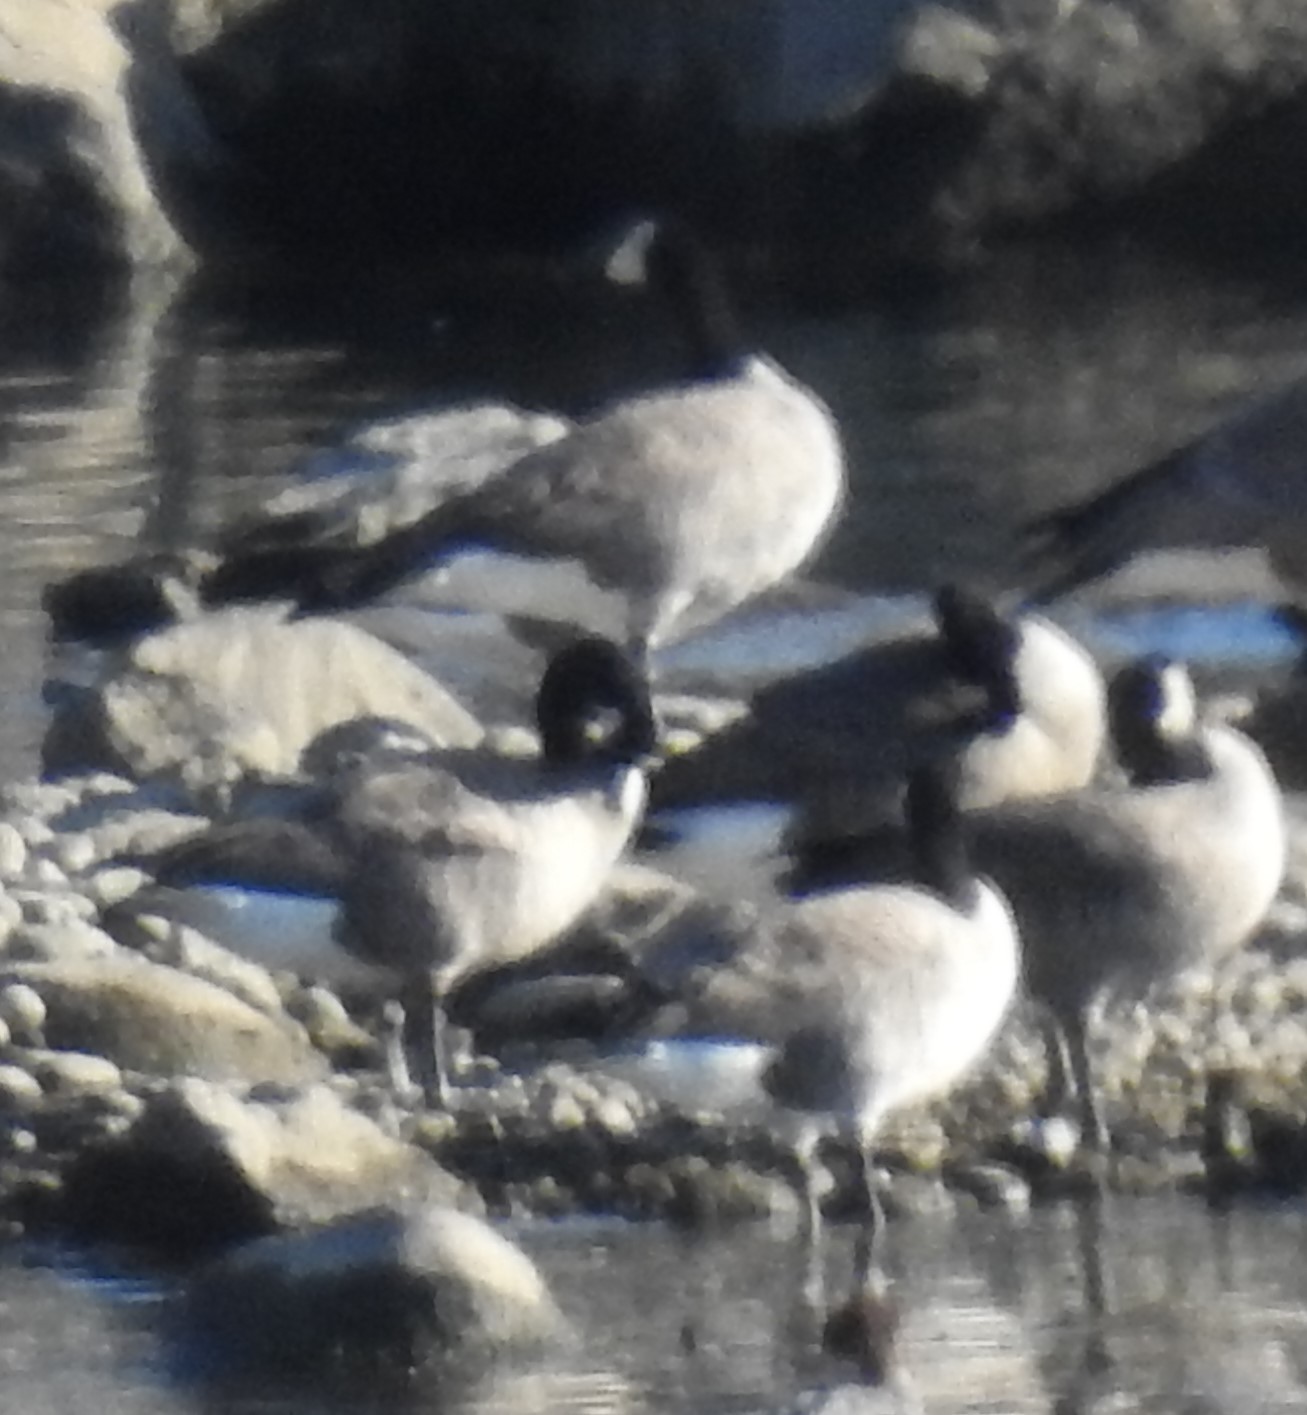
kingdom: Animalia
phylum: Chordata
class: Aves
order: Anseriformes
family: Anatidae
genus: Branta
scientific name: Branta canadensis
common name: Canada goose
